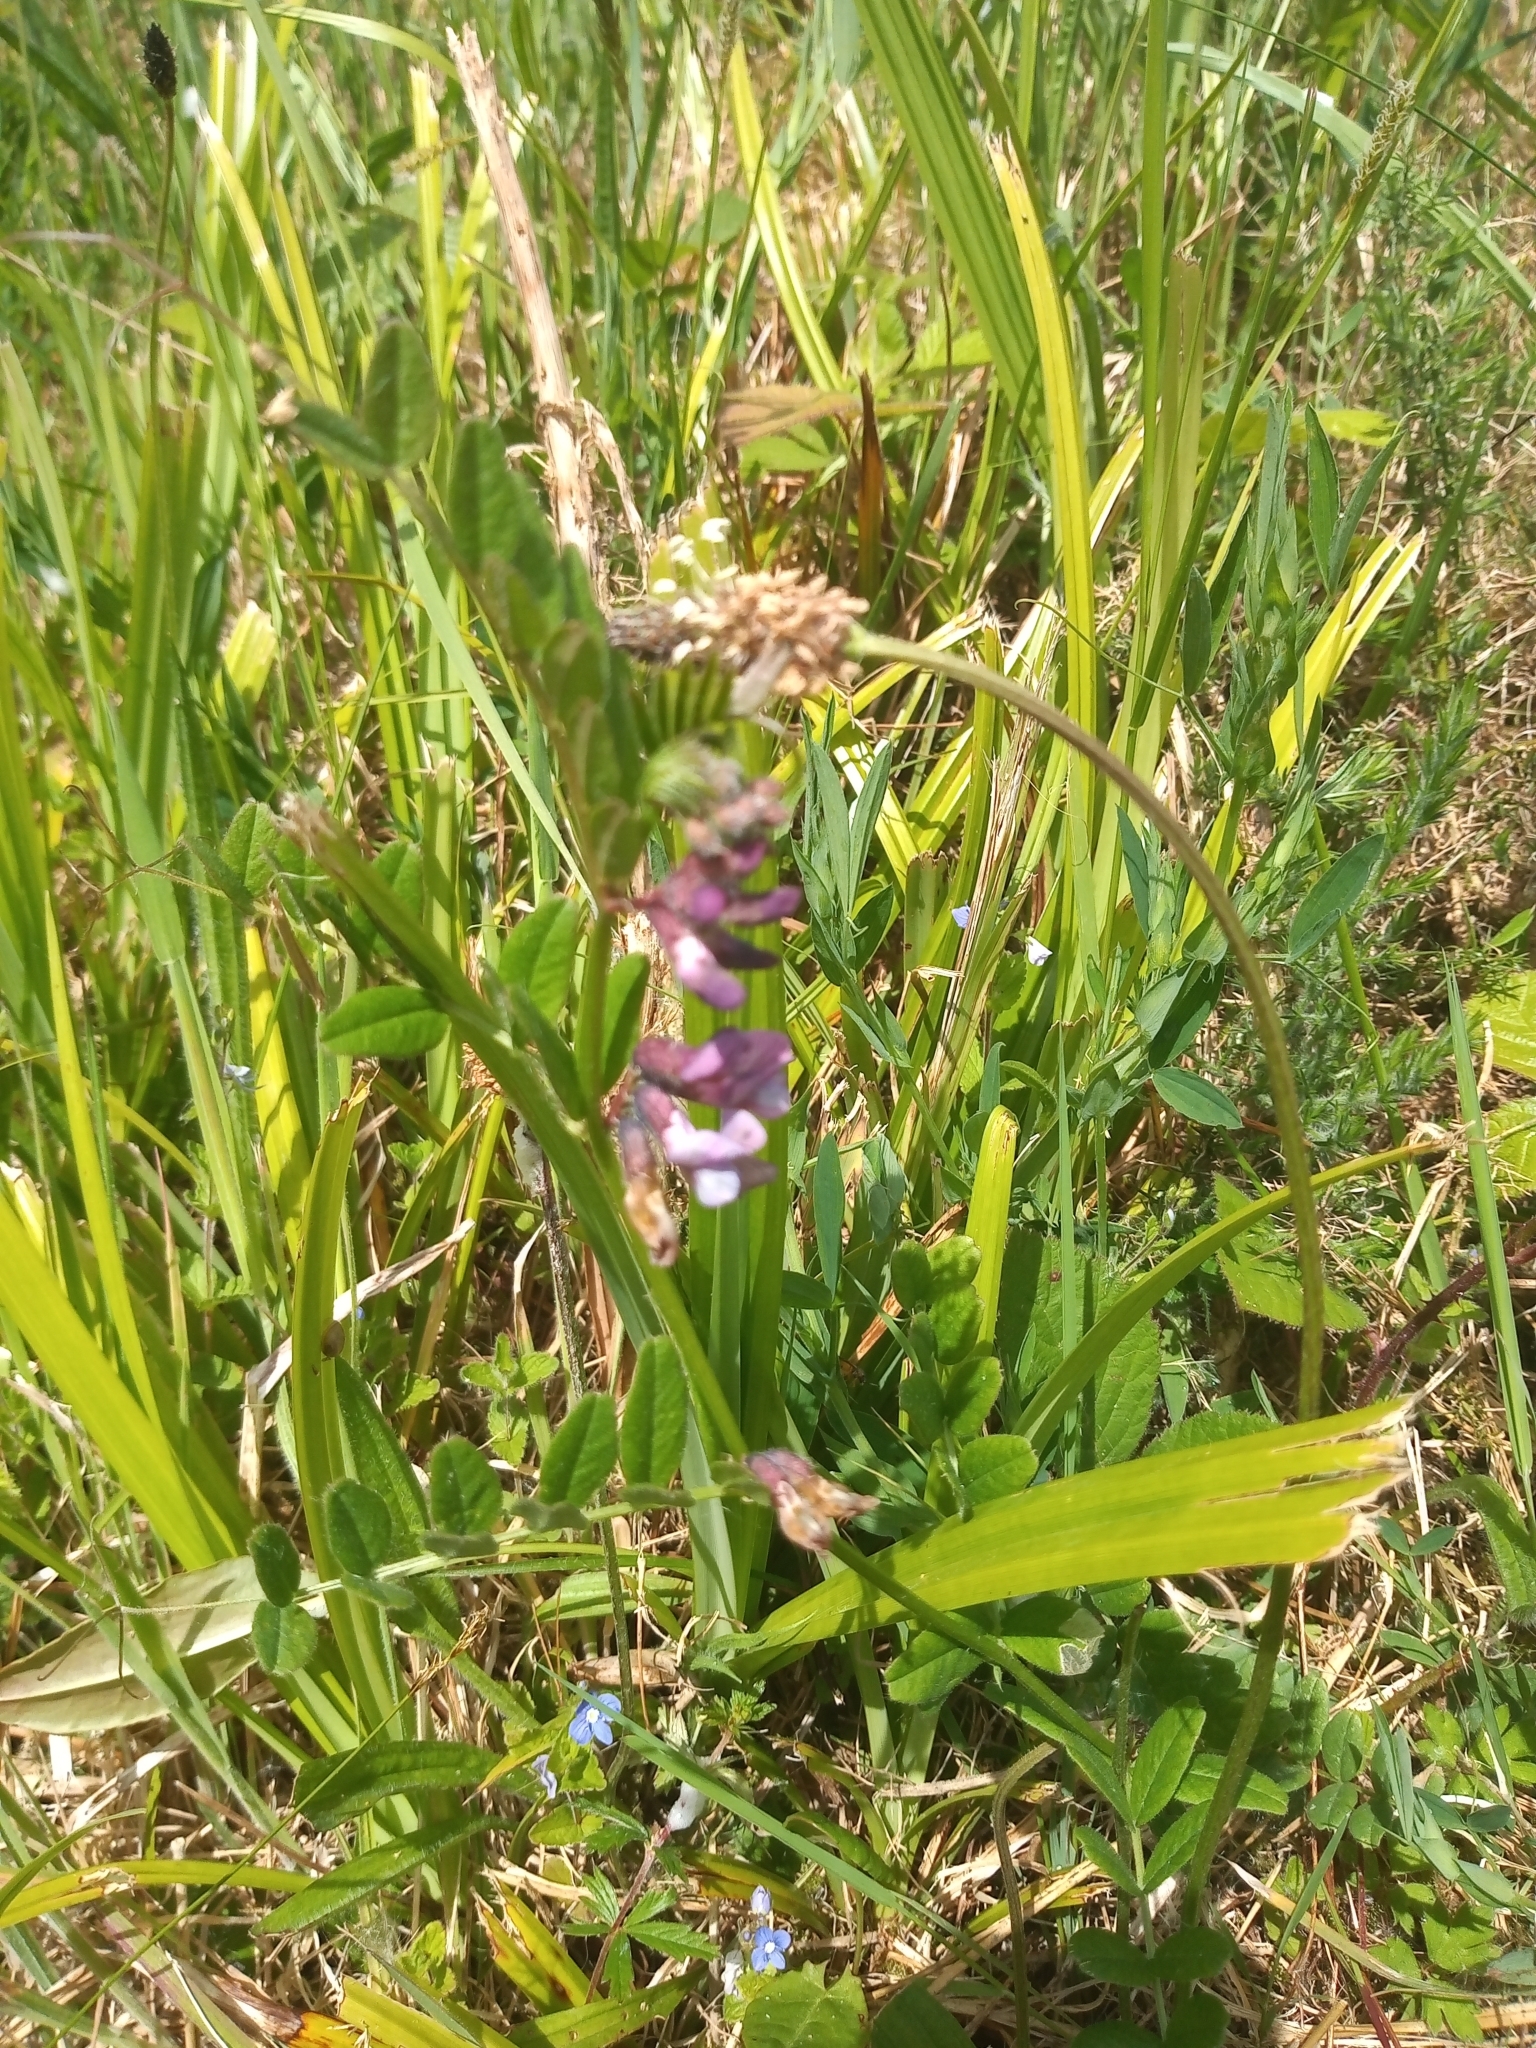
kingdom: Plantae
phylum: Tracheophyta
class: Magnoliopsida
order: Fabales
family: Fabaceae
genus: Vicia
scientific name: Vicia sepium
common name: Bush vetch
